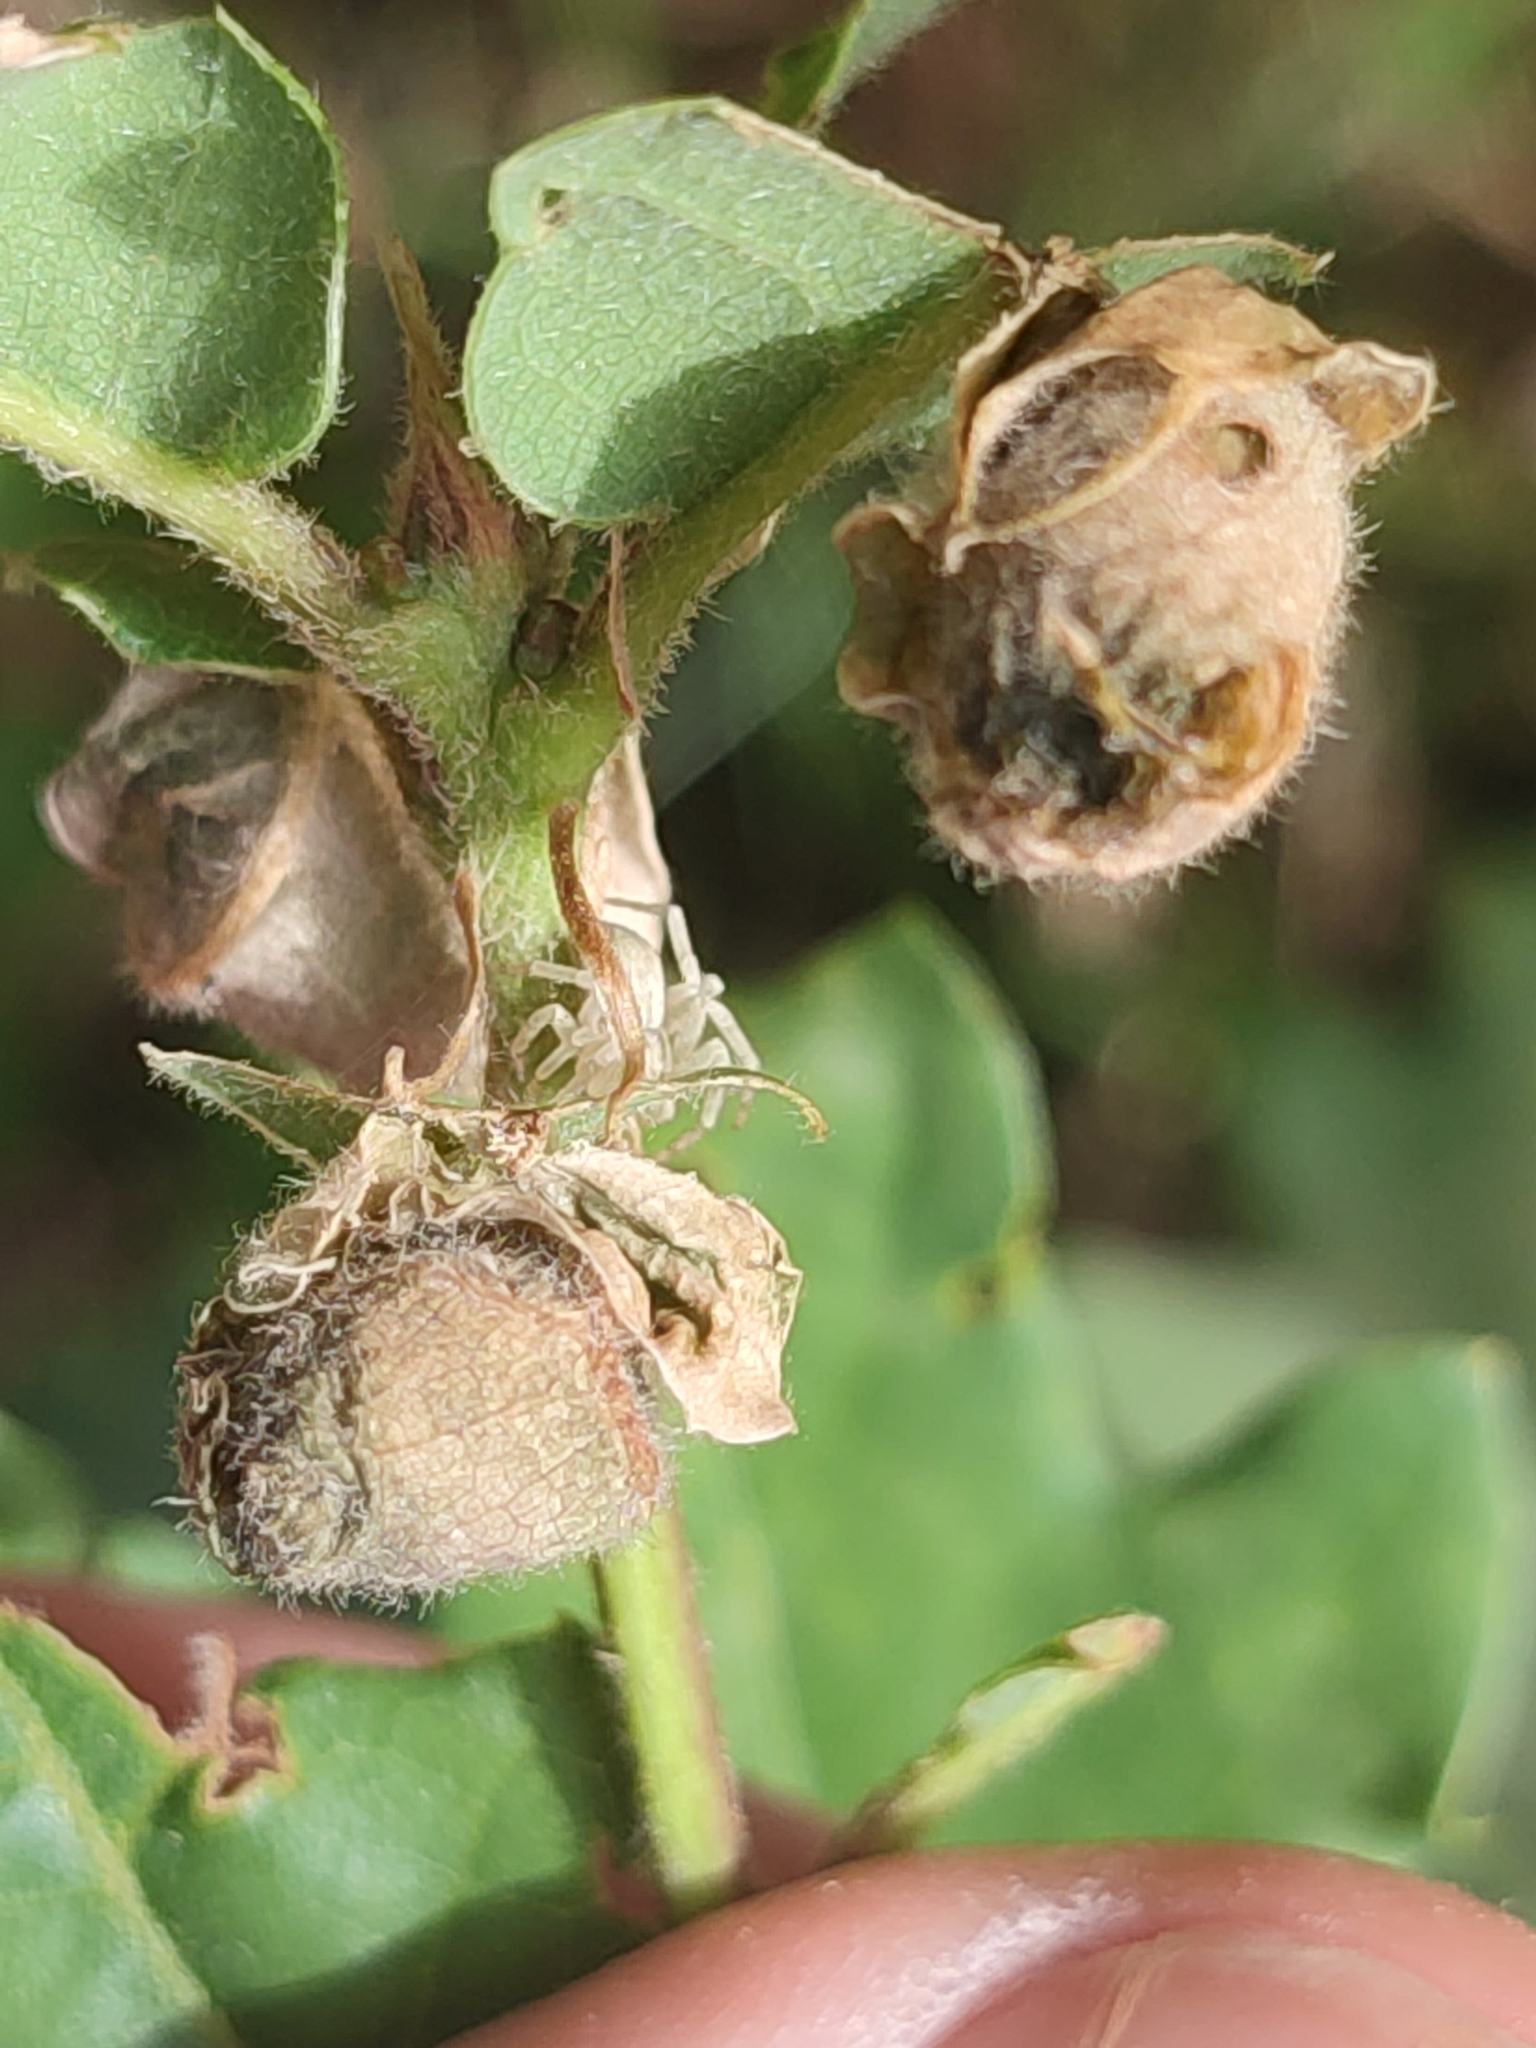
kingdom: Animalia
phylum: Arthropoda
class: Insecta
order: Coleoptera
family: Attelabidae
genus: Attelabus
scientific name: Attelabus nitens
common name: Oak leaf-roller
